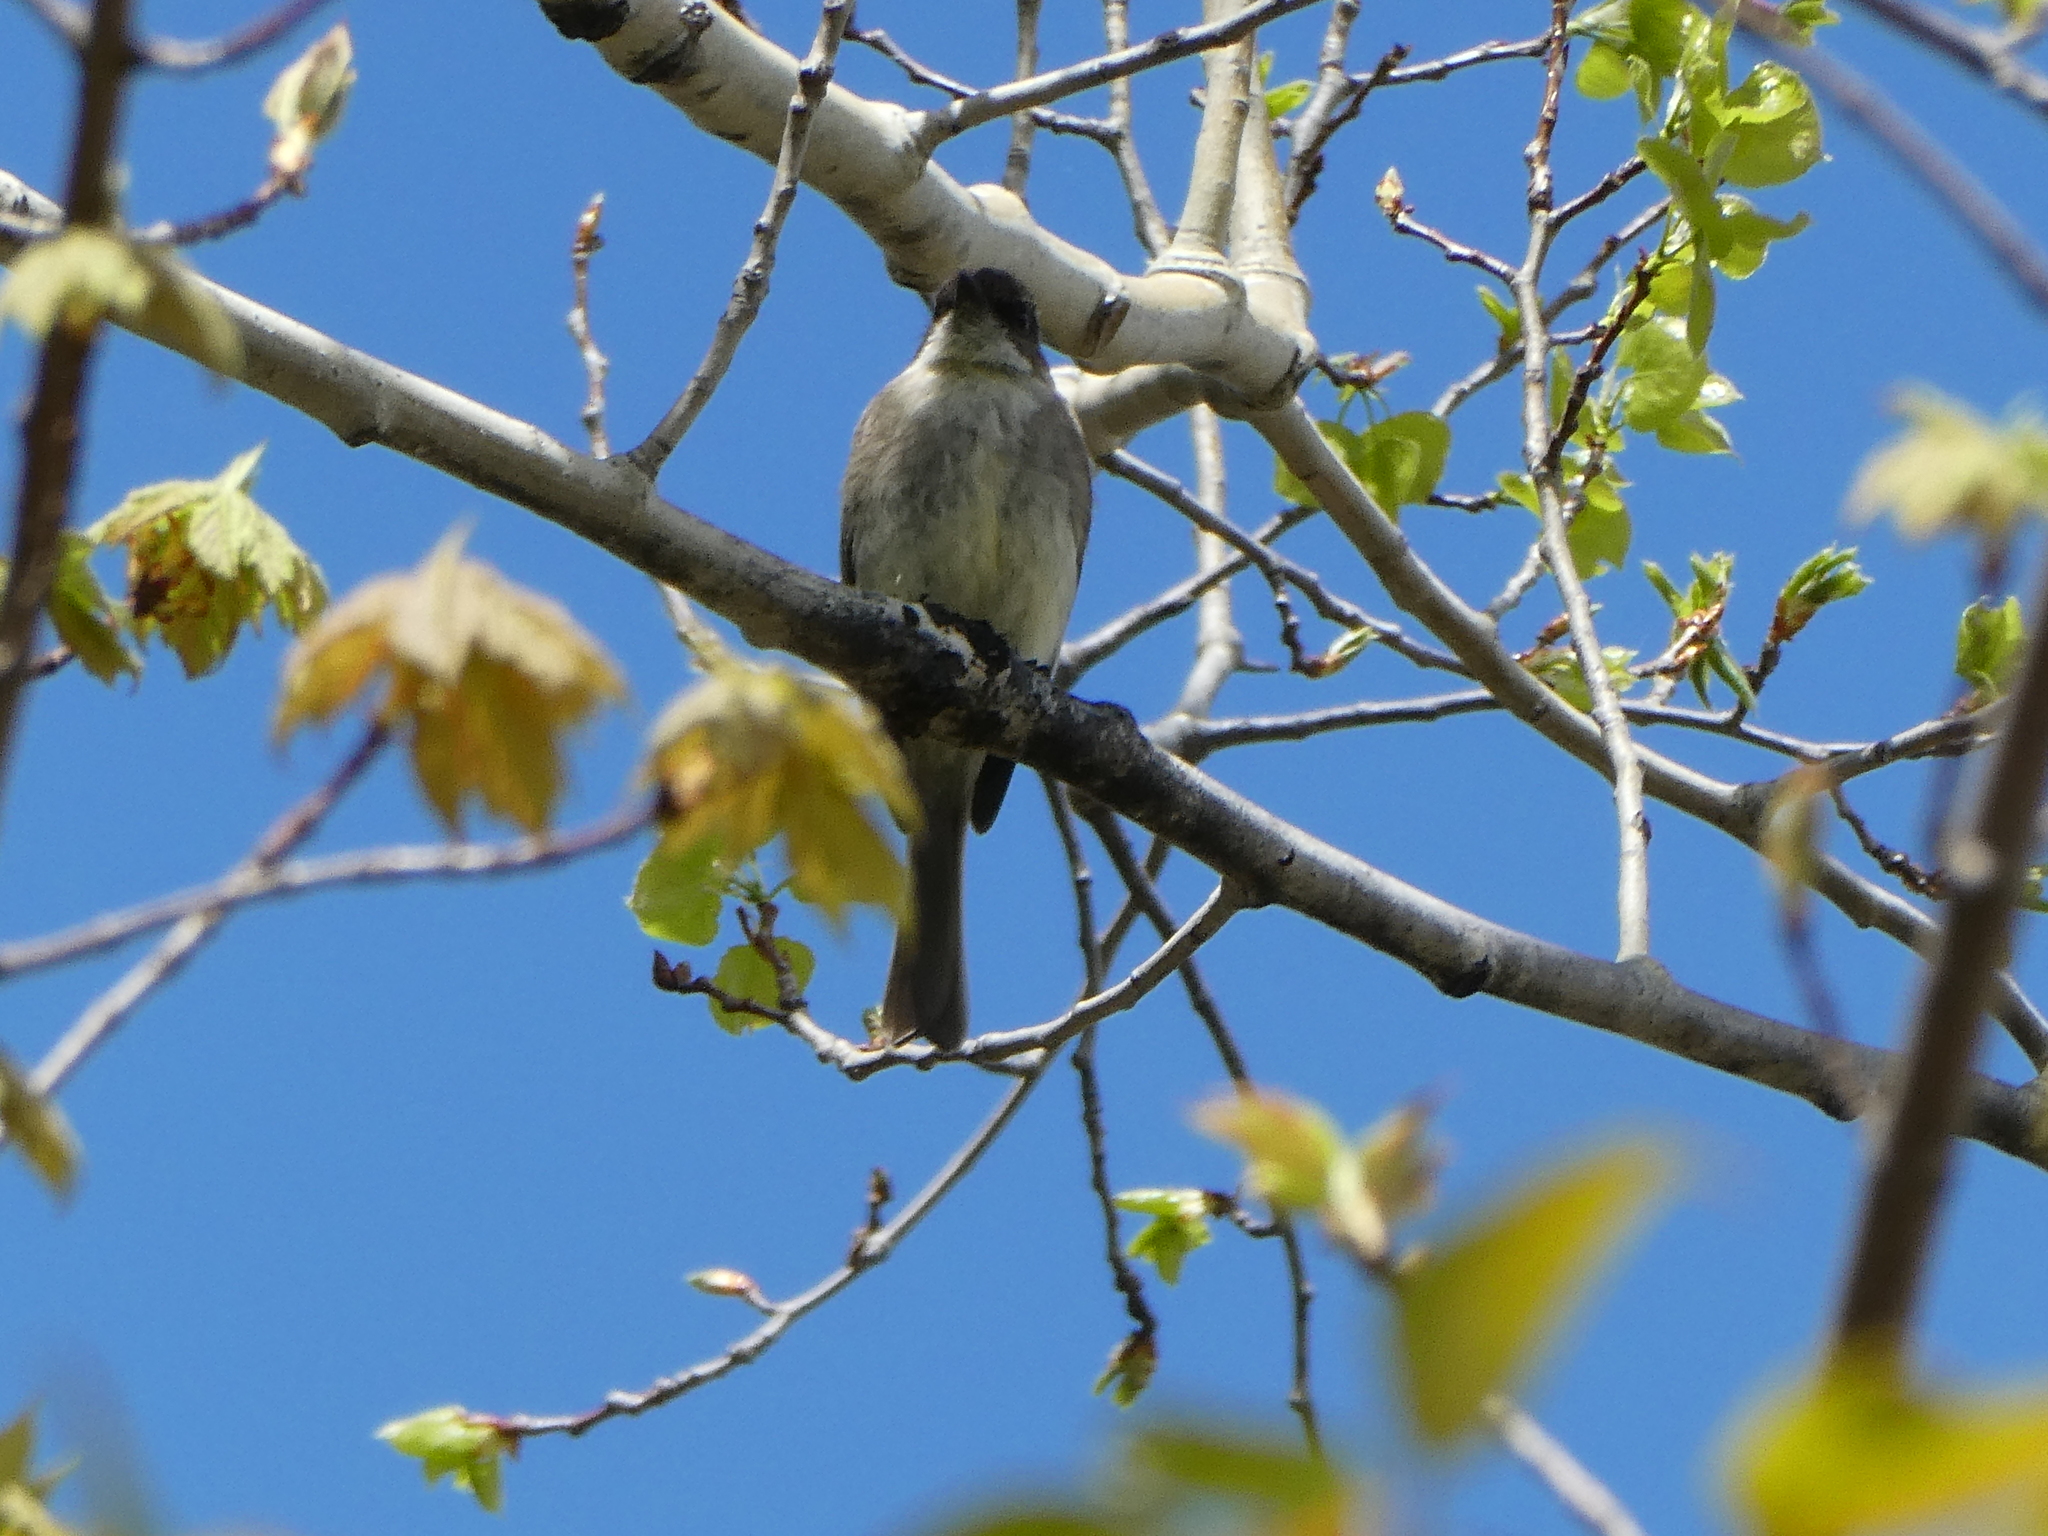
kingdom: Animalia
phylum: Chordata
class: Aves
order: Passeriformes
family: Tyrannidae
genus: Sayornis
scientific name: Sayornis phoebe
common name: Eastern phoebe
